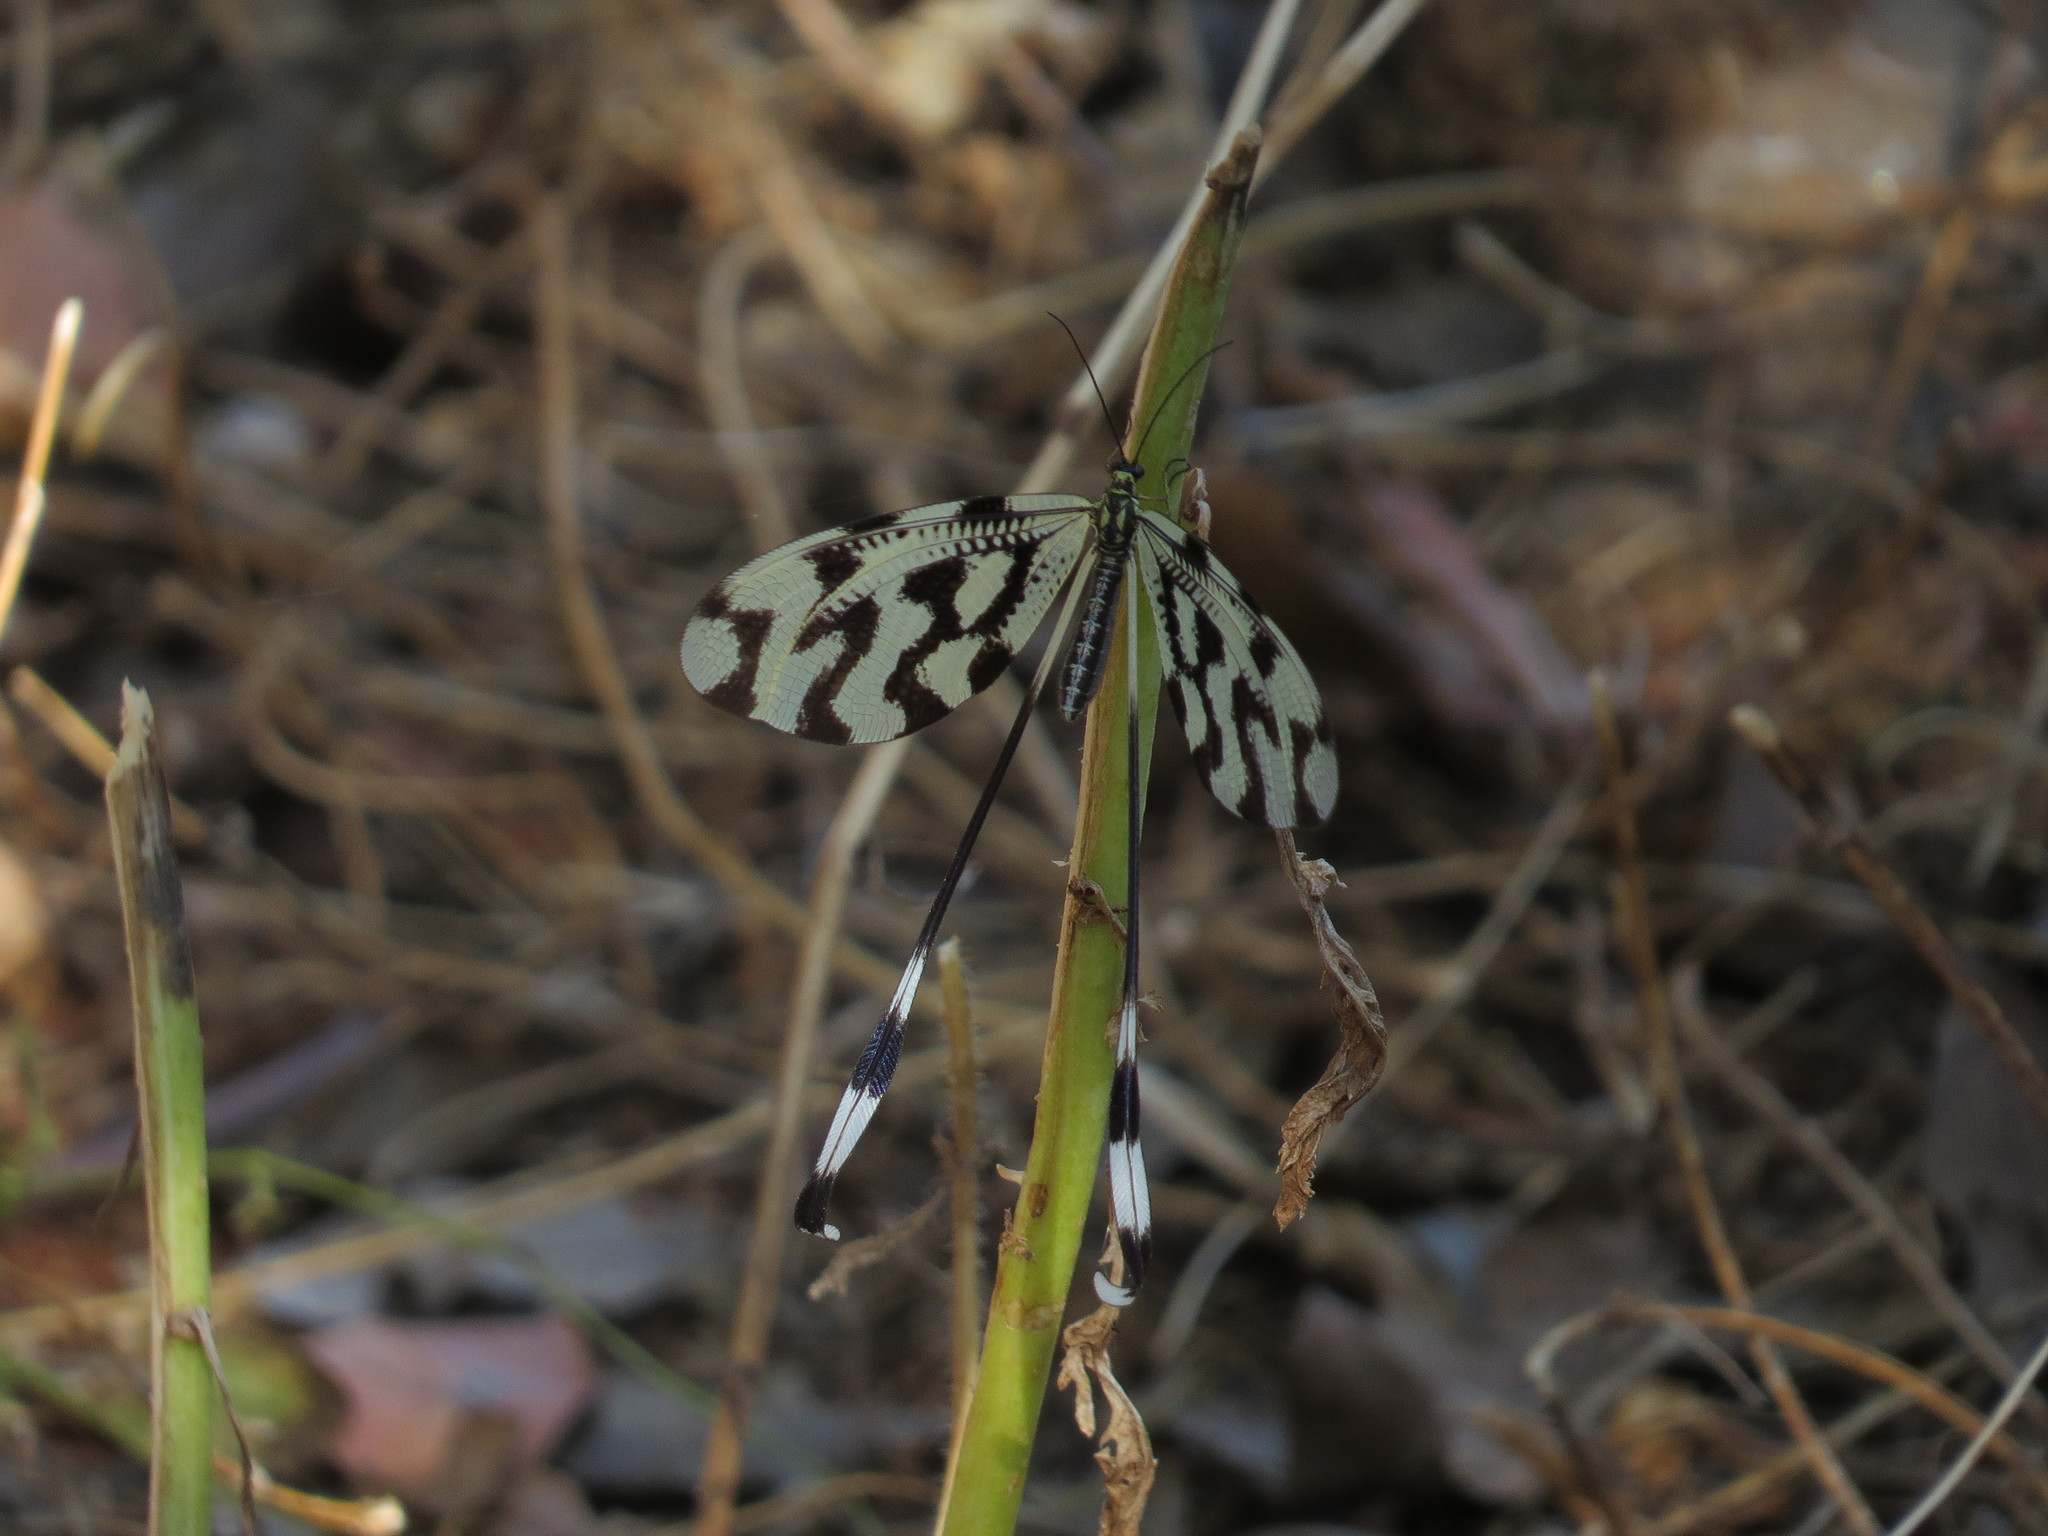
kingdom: Animalia
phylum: Arthropoda
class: Insecta
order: Neuroptera
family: Nemopteridae
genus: Nemoptera
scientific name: Nemoptera sinuata
